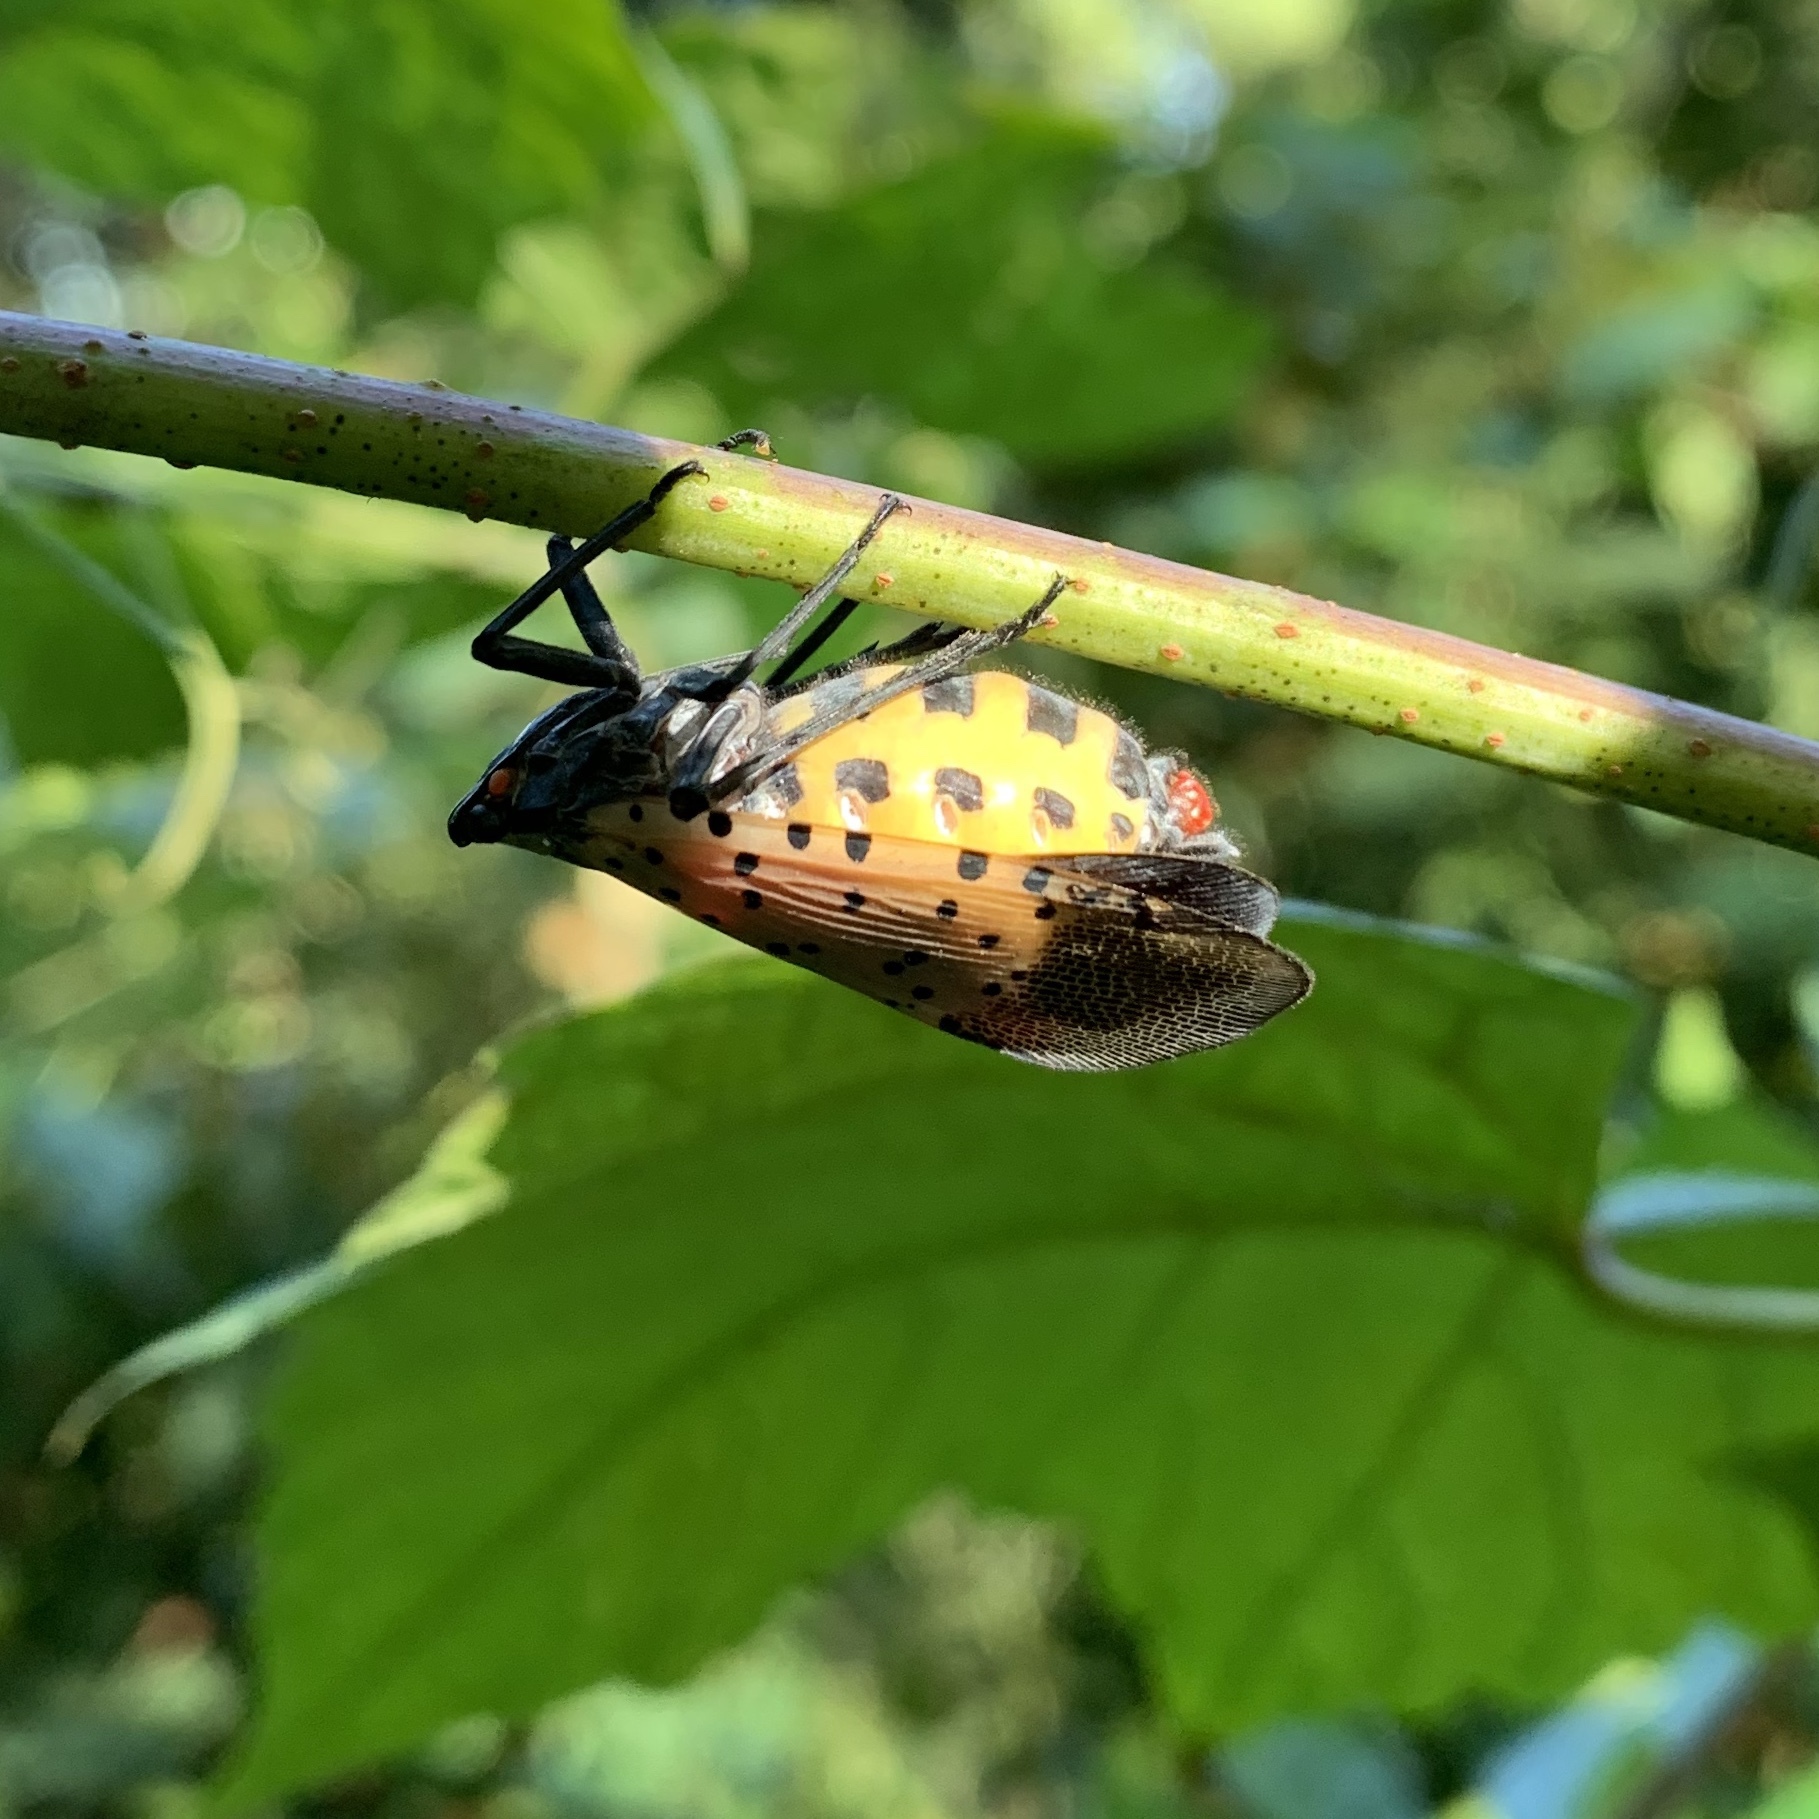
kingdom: Animalia
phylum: Arthropoda
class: Insecta
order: Hemiptera
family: Fulgoridae
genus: Lycorma
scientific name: Lycorma delicatula
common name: Spotted lanternfly
